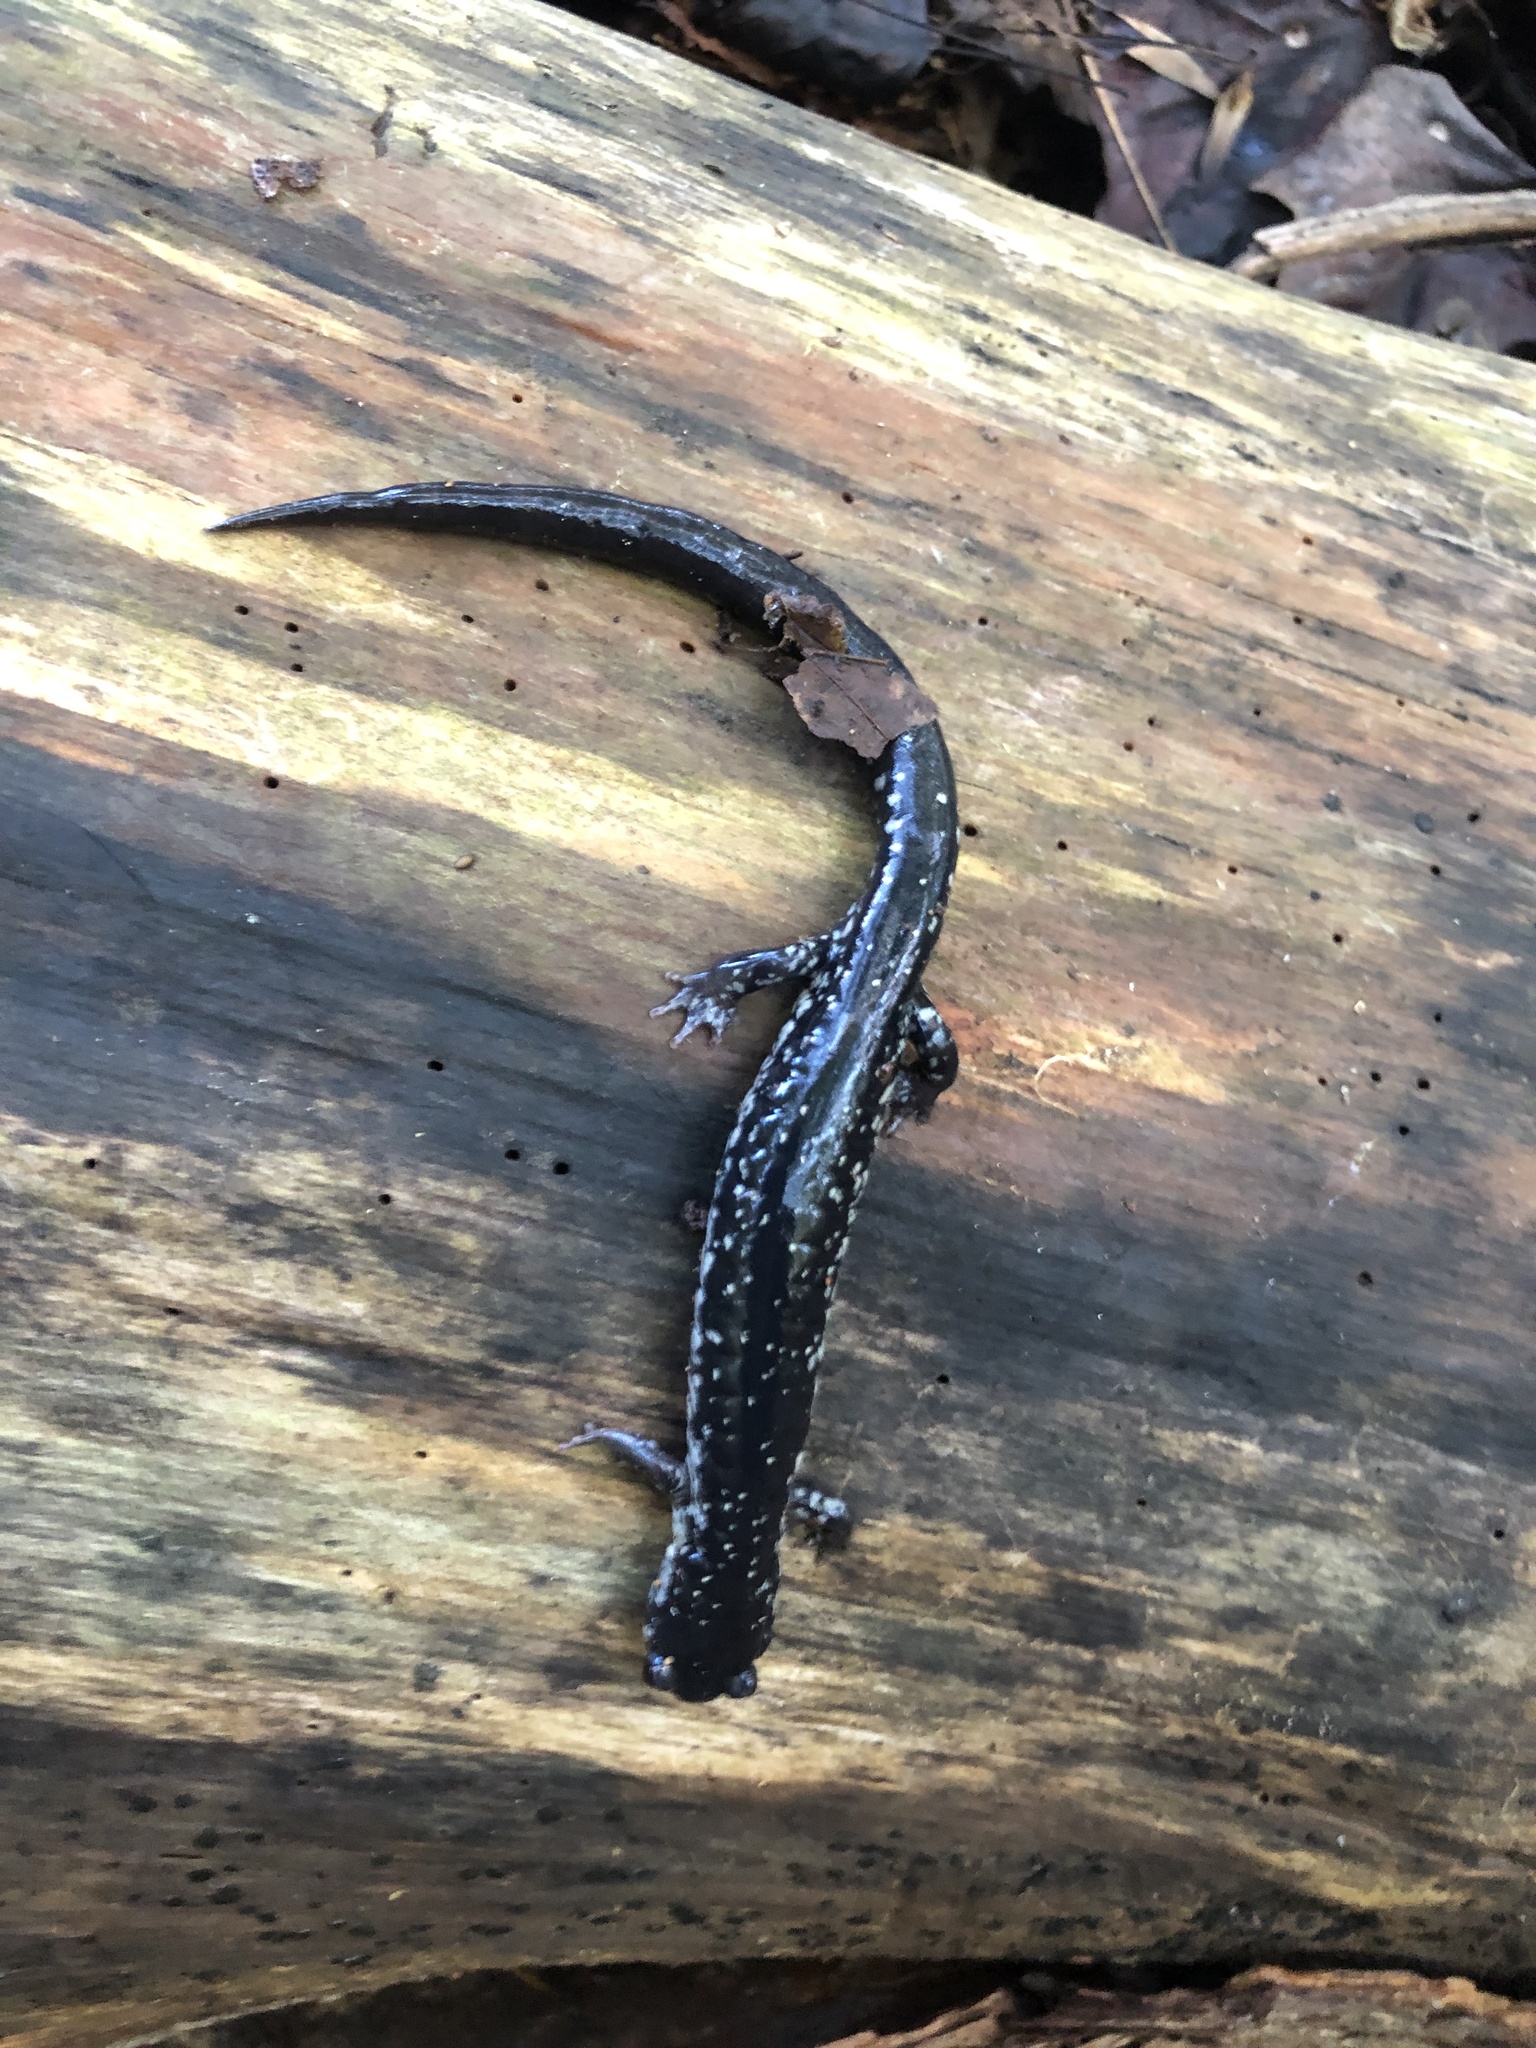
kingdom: Animalia
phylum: Chordata
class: Amphibia
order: Caudata
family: Plethodontidae
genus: Plethodon
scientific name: Plethodon glutinosus
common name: Northern slimy salamander
